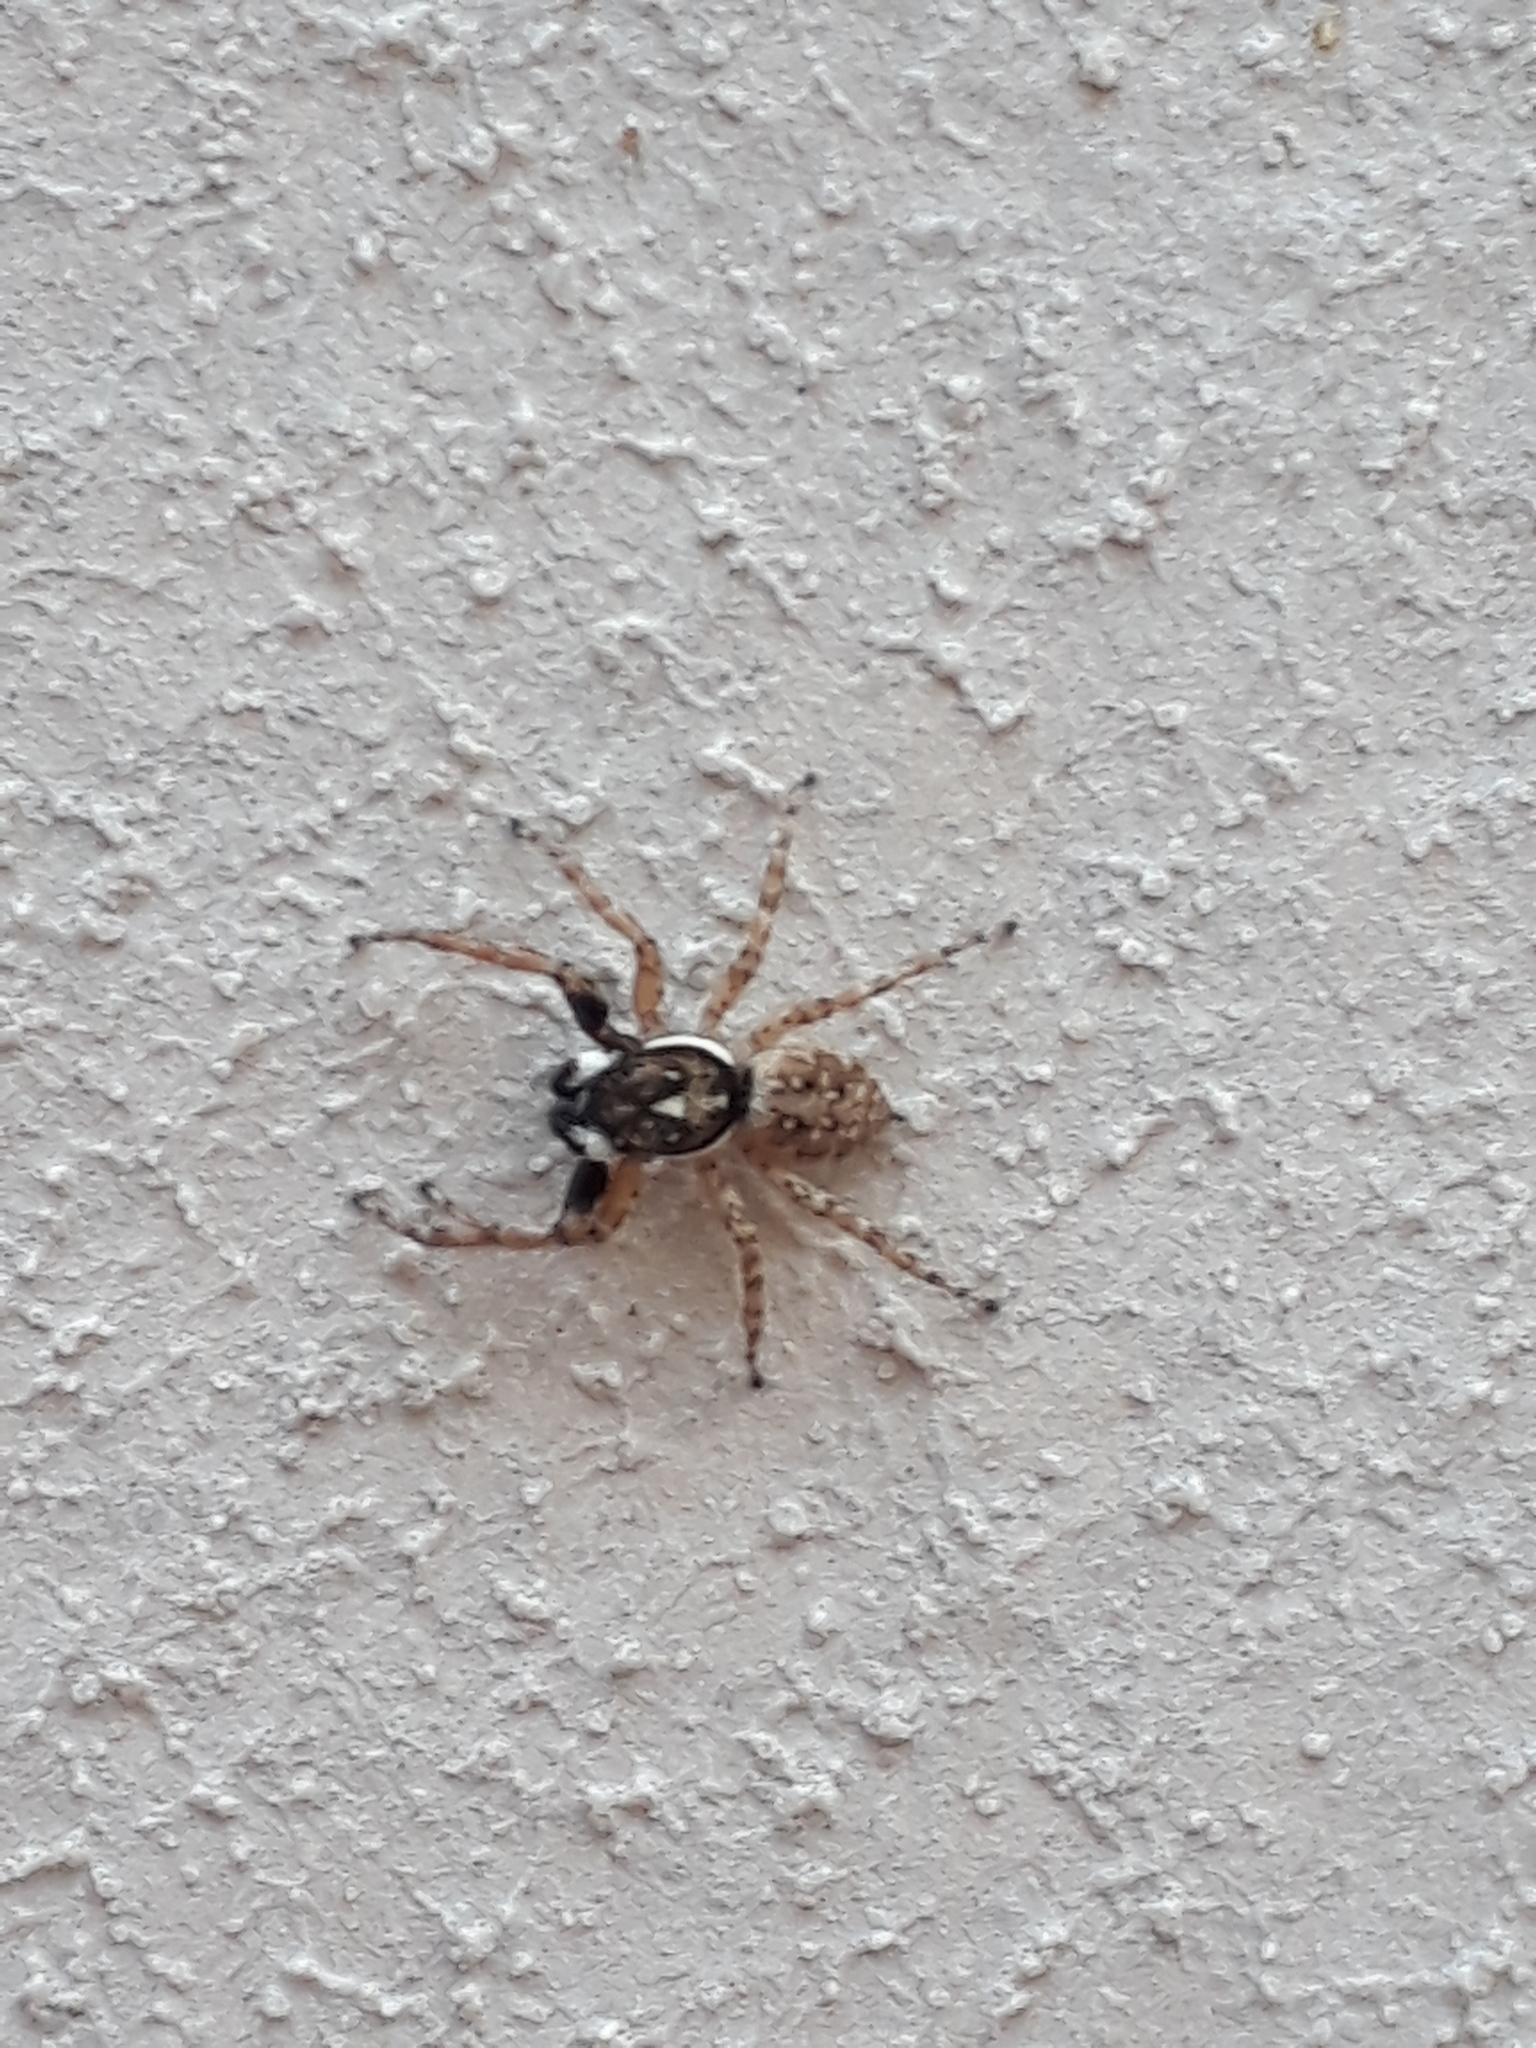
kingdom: Animalia
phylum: Arthropoda
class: Arachnida
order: Araneae
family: Salticidae
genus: Menemerus
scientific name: Menemerus semilimbatus
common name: Jumping spider
